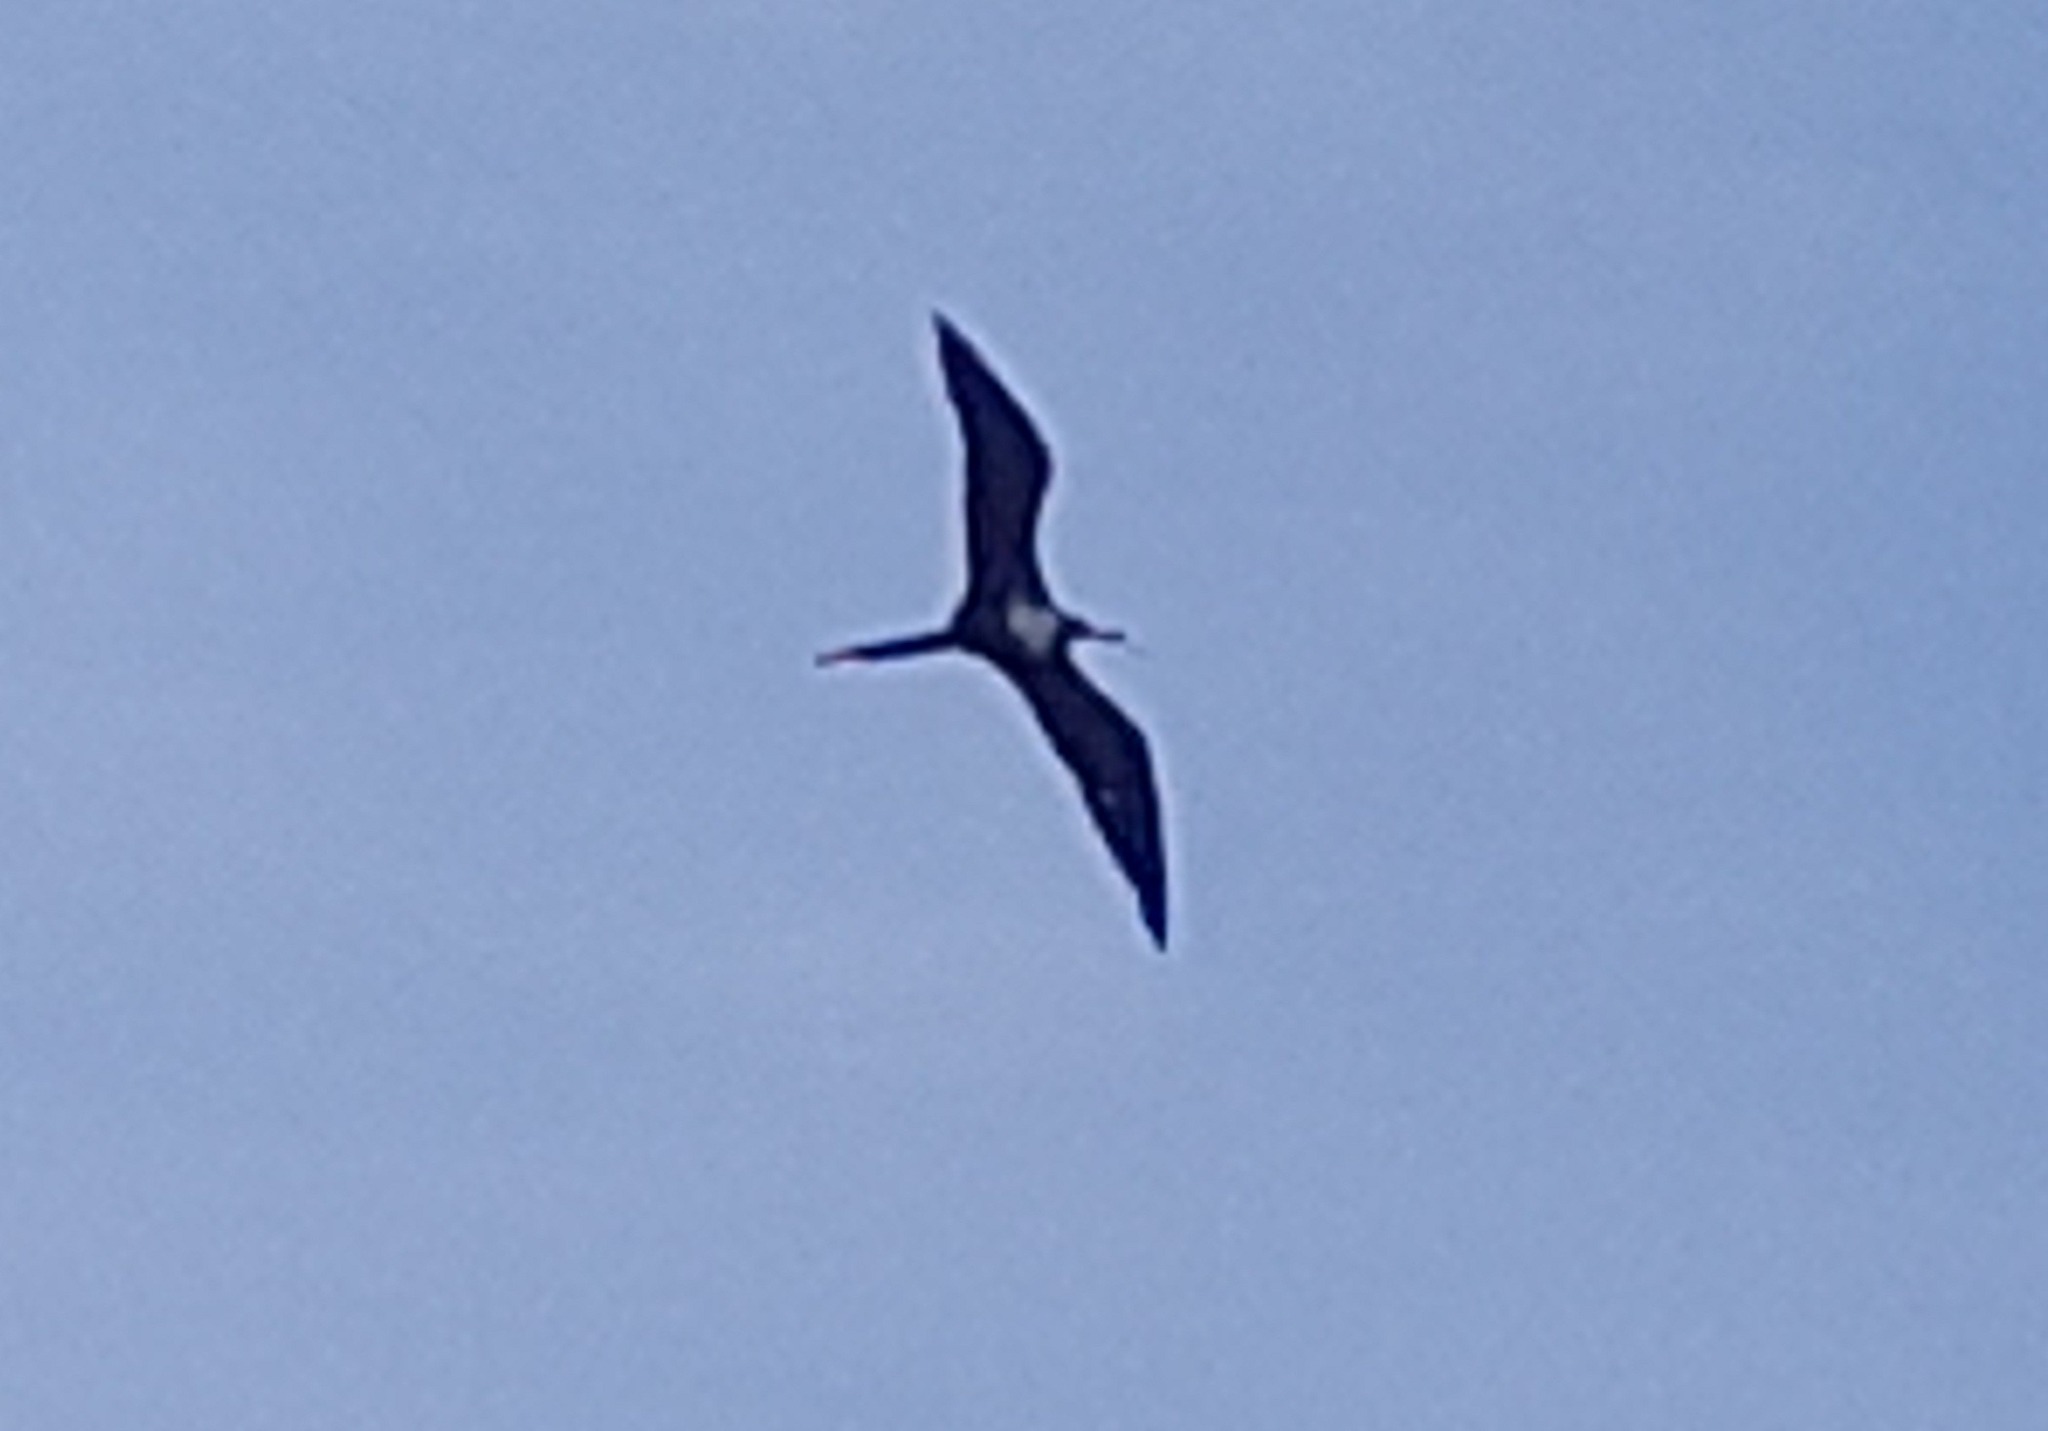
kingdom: Animalia
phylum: Chordata
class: Aves
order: Suliformes
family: Fregatidae
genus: Fregata
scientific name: Fregata magnificens
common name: Magnificent frigatebird
